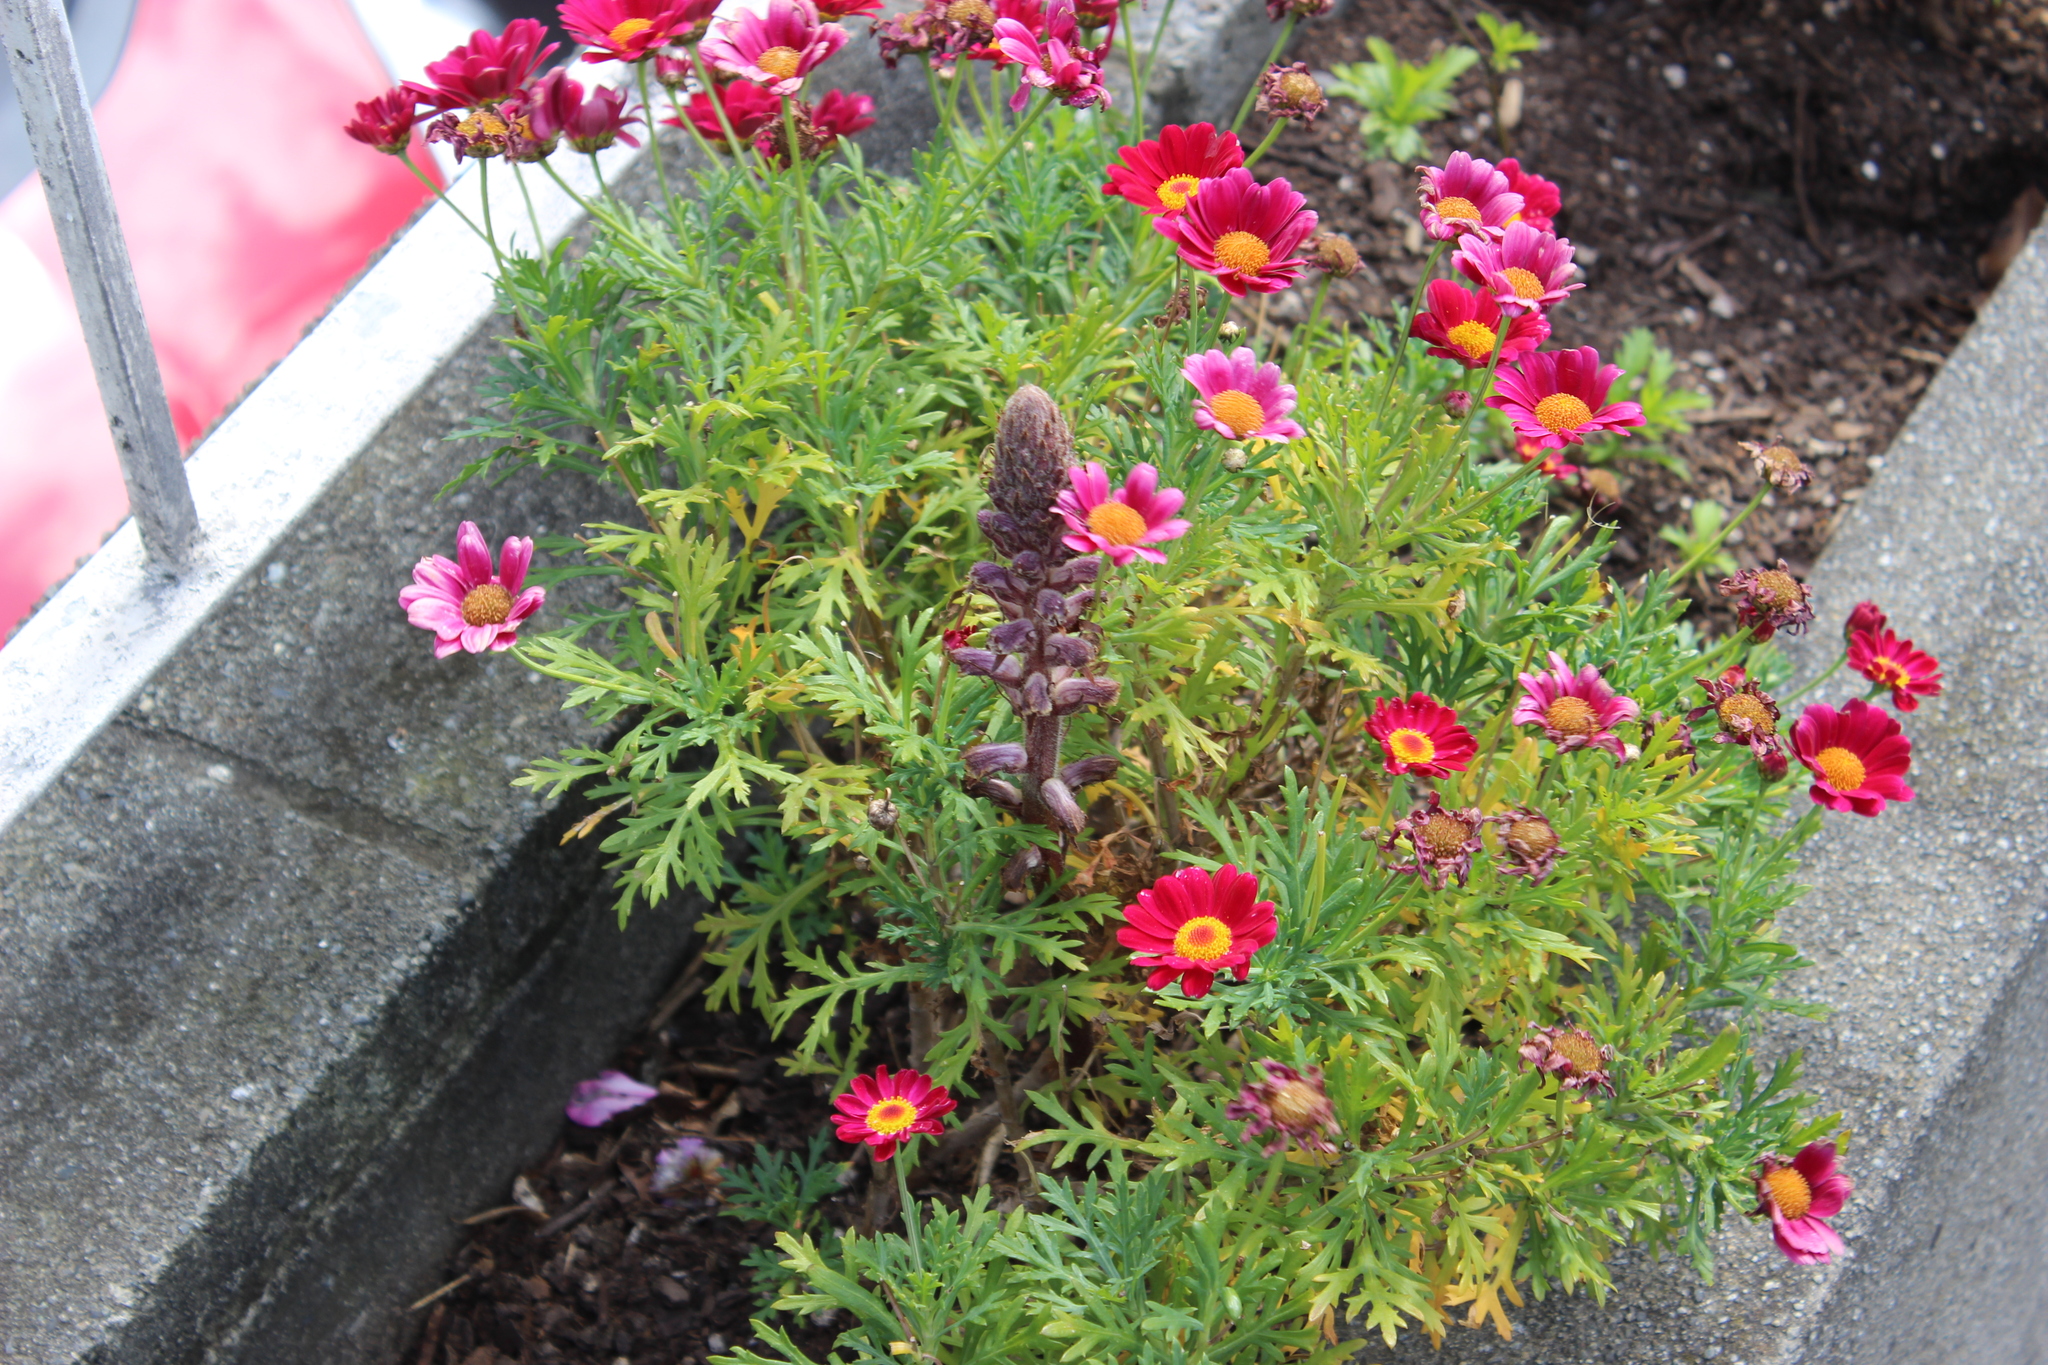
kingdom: Plantae
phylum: Tracheophyta
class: Magnoliopsida
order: Lamiales
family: Orobanchaceae
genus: Orobanche
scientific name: Orobanche minor
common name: Common broomrape
